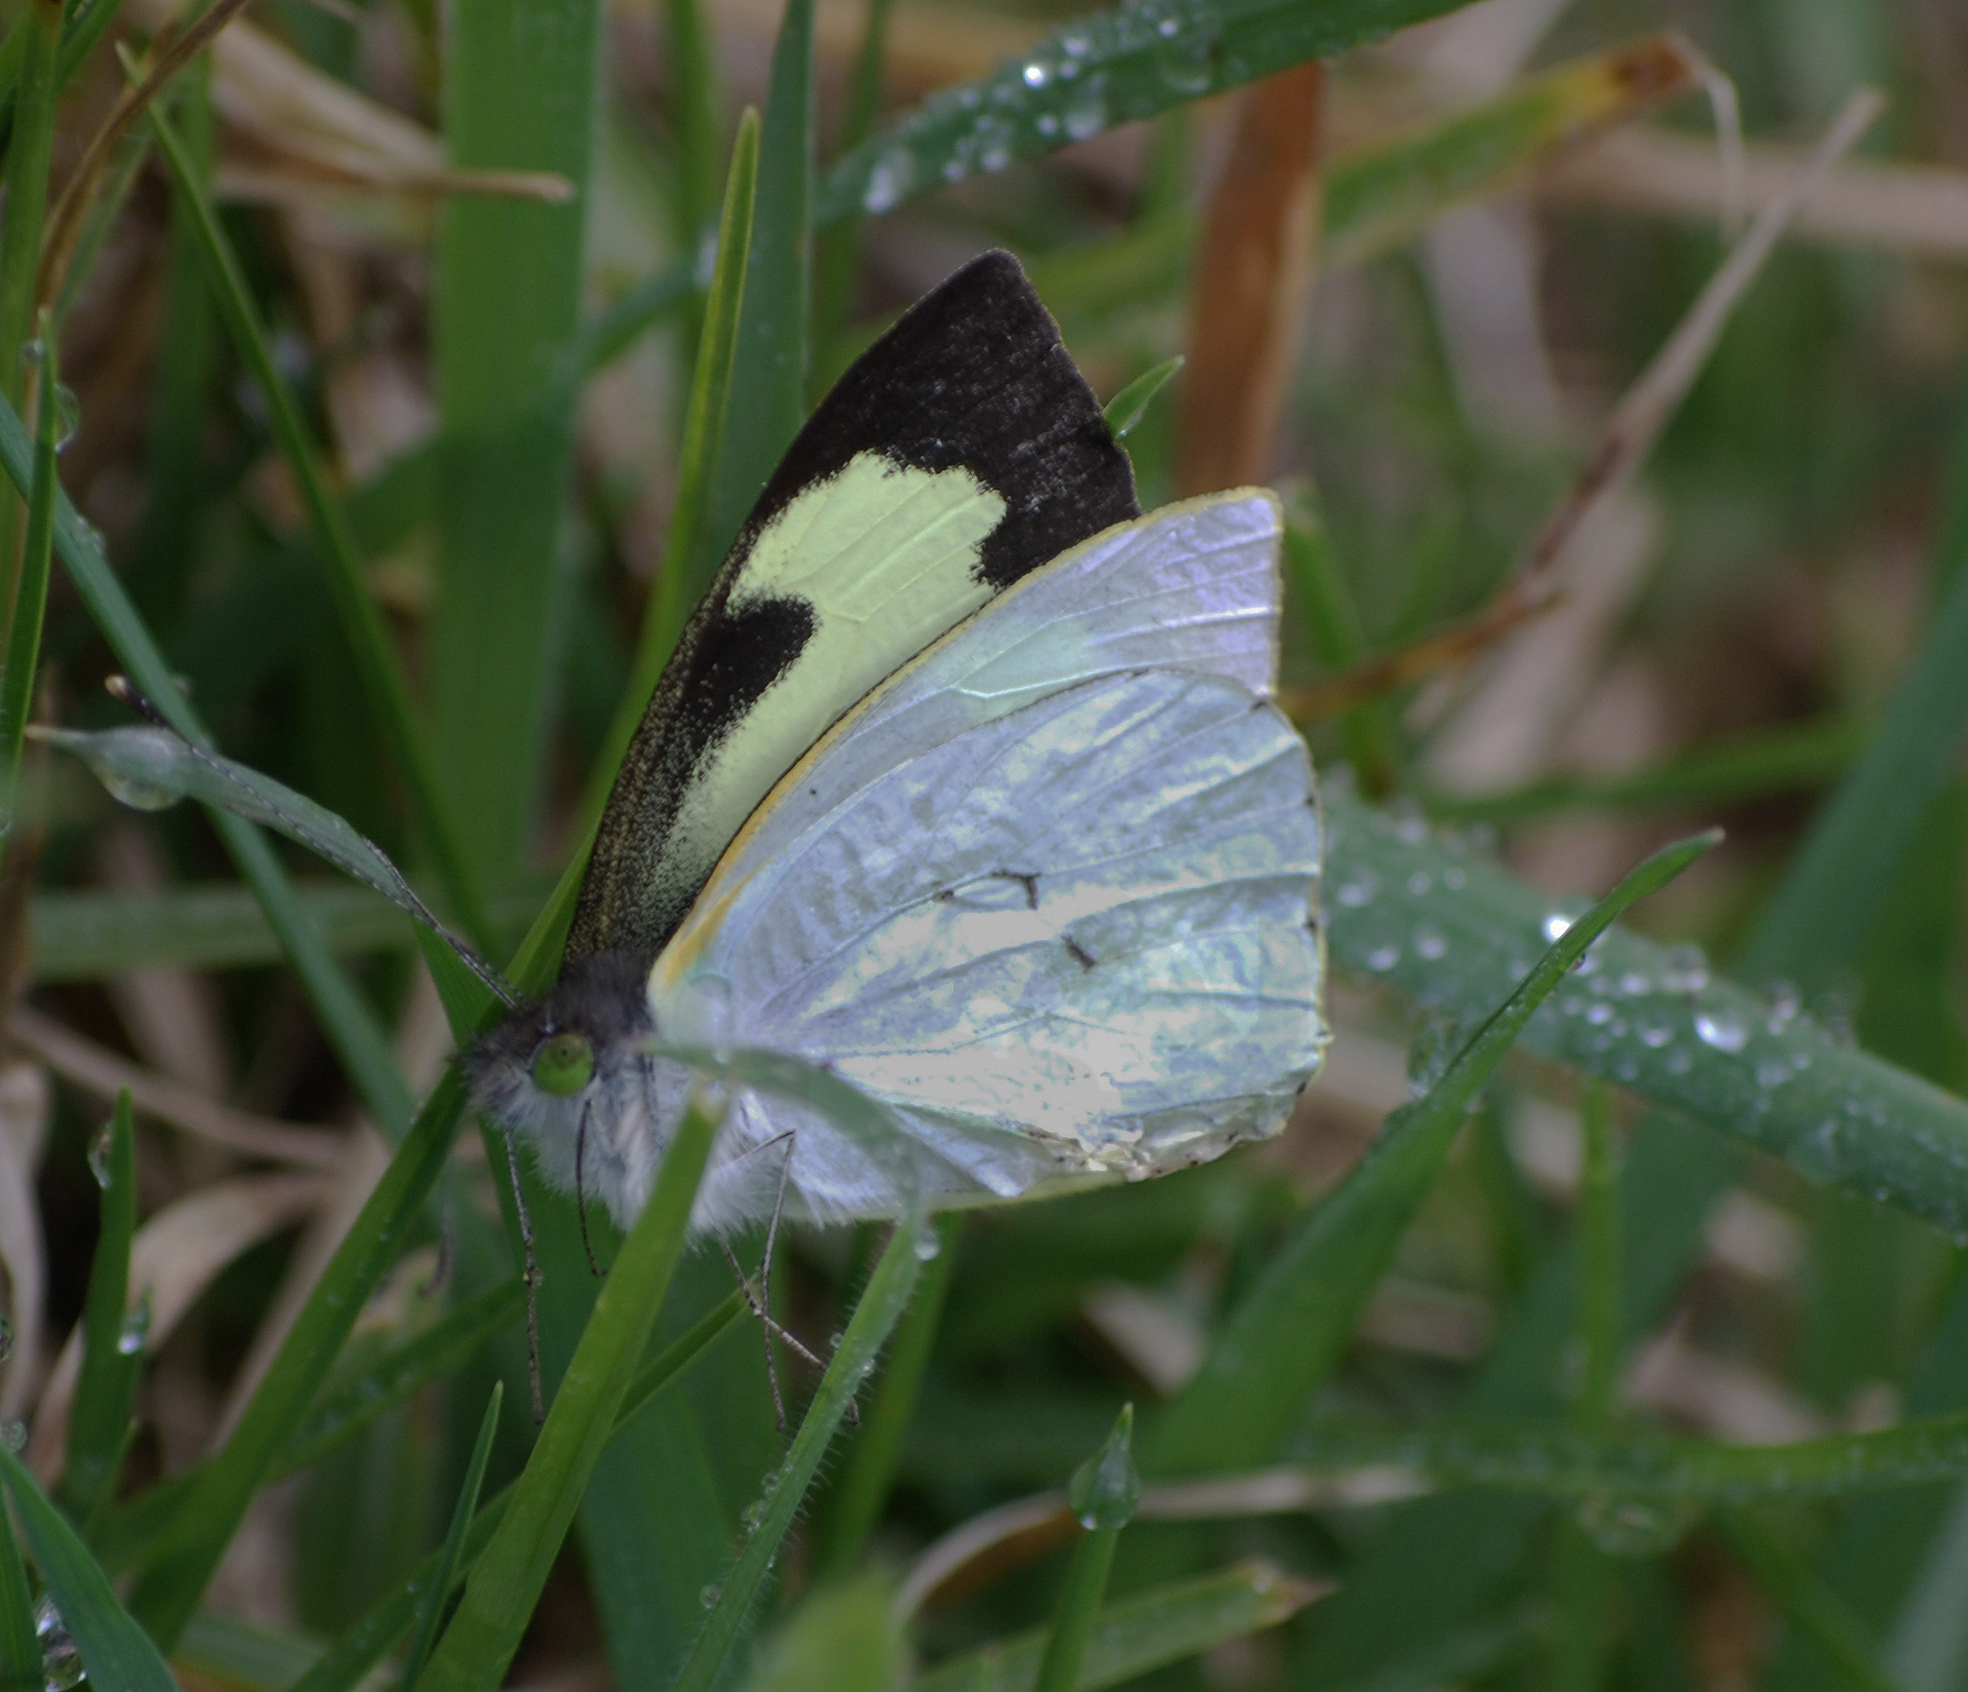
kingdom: Animalia
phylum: Arthropoda
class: Insecta
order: Lepidoptera
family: Pieridae
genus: Leptophobia
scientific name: Leptophobia eleone
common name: Silky wanderer
